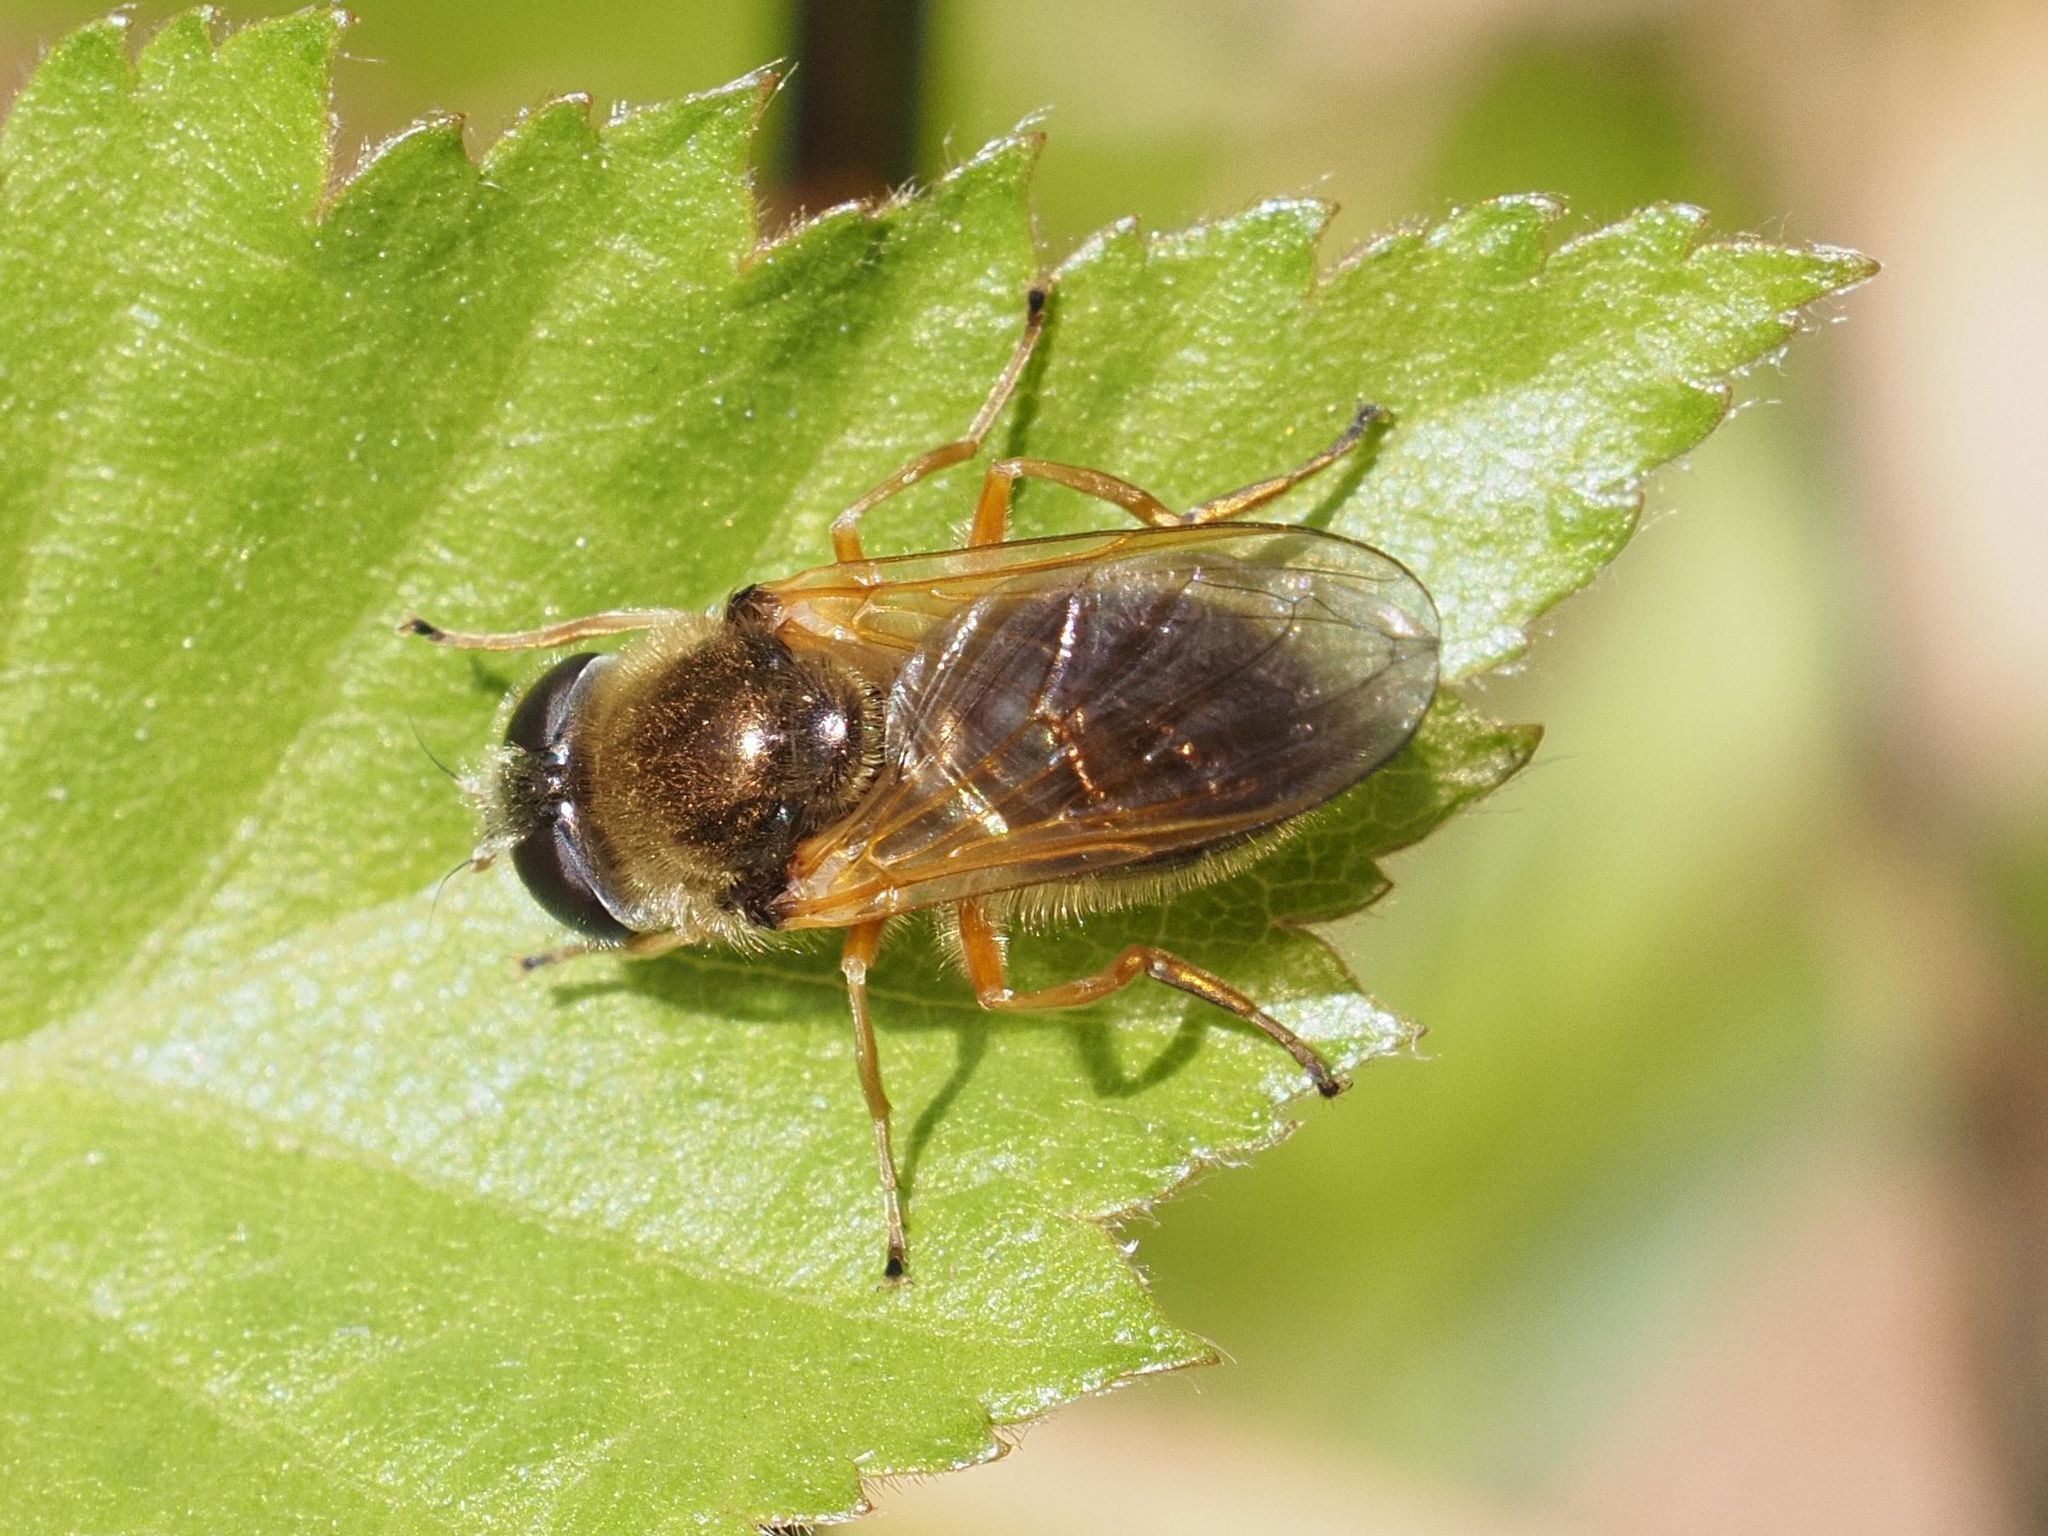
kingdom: Animalia
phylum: Arthropoda
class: Insecta
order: Diptera
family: Syrphidae
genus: Cheilosia
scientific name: Cheilosia albipila
